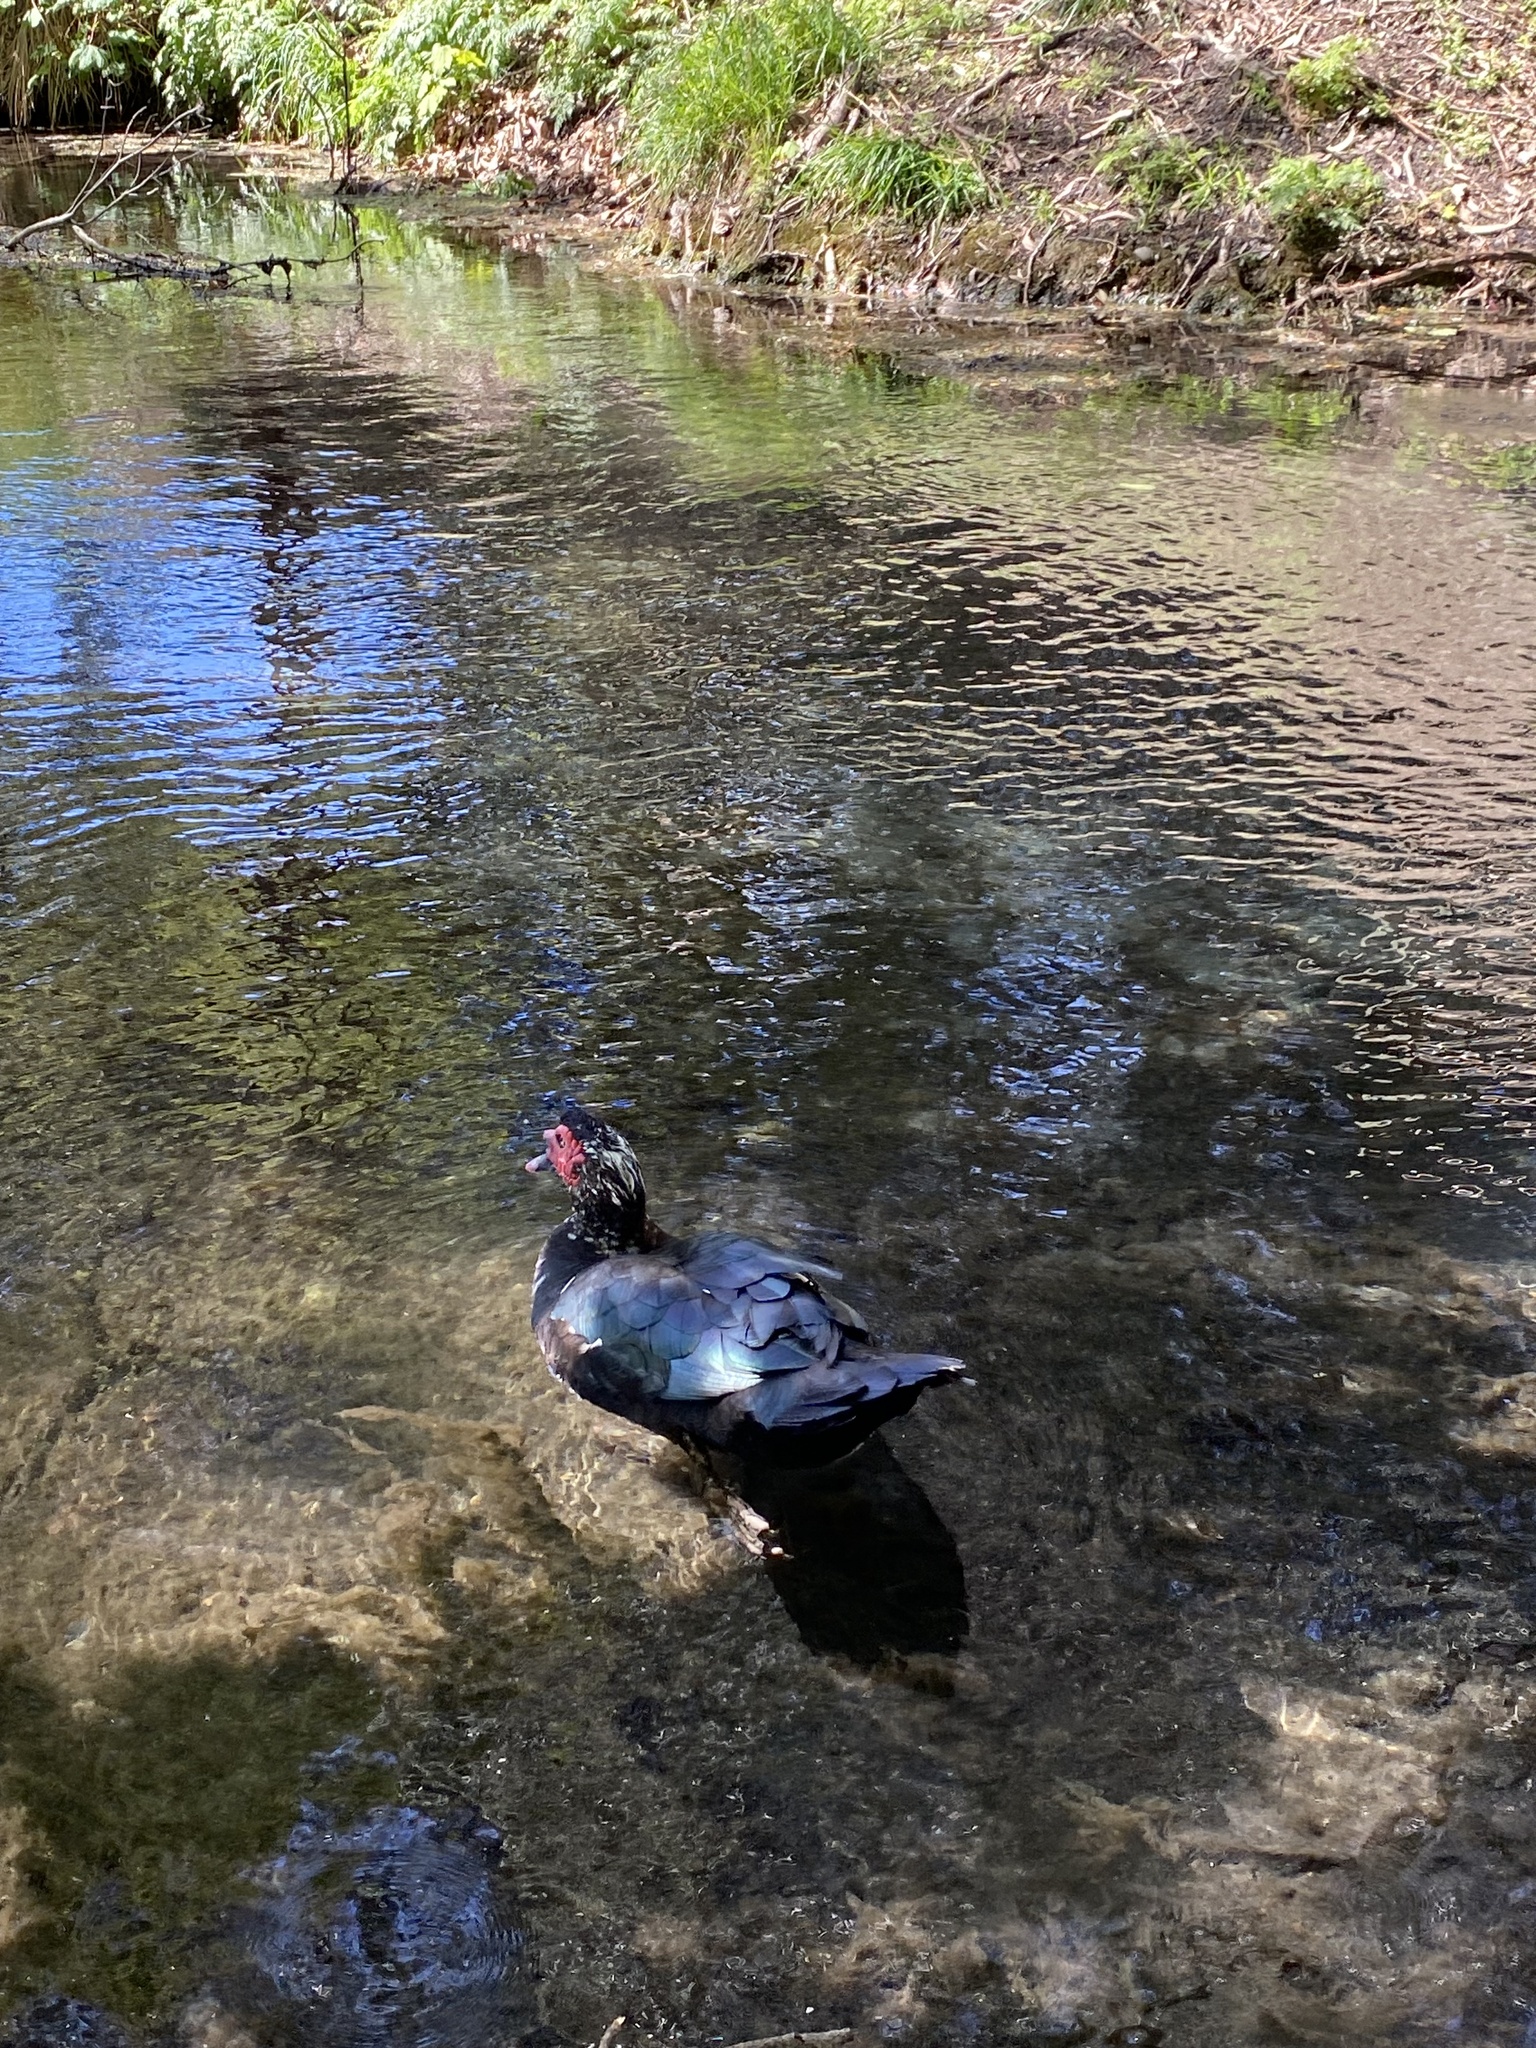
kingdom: Animalia
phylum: Chordata
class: Aves
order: Anseriformes
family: Anatidae
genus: Cairina
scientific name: Cairina moschata
